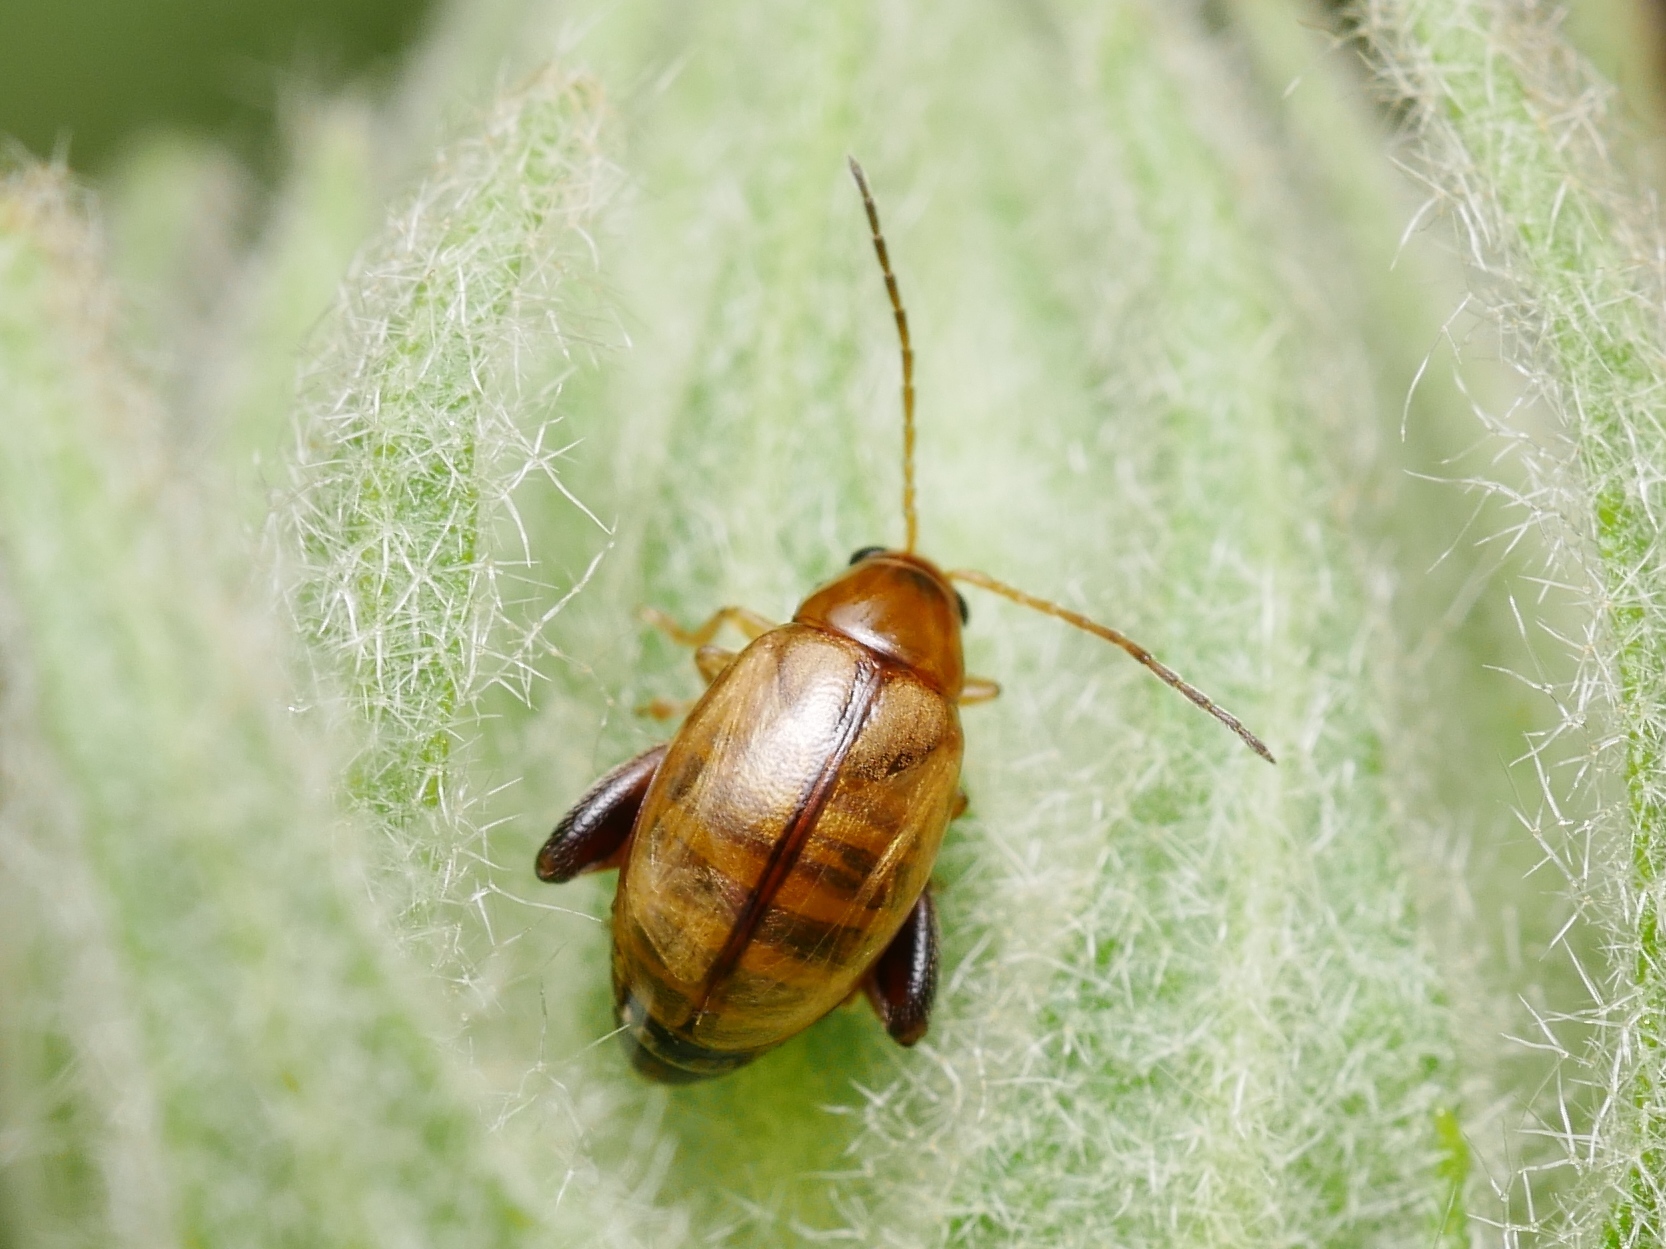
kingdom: Animalia
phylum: Arthropoda
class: Insecta
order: Coleoptera
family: Chrysomelidae
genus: Longitarsus
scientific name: Longitarsus tabidus
